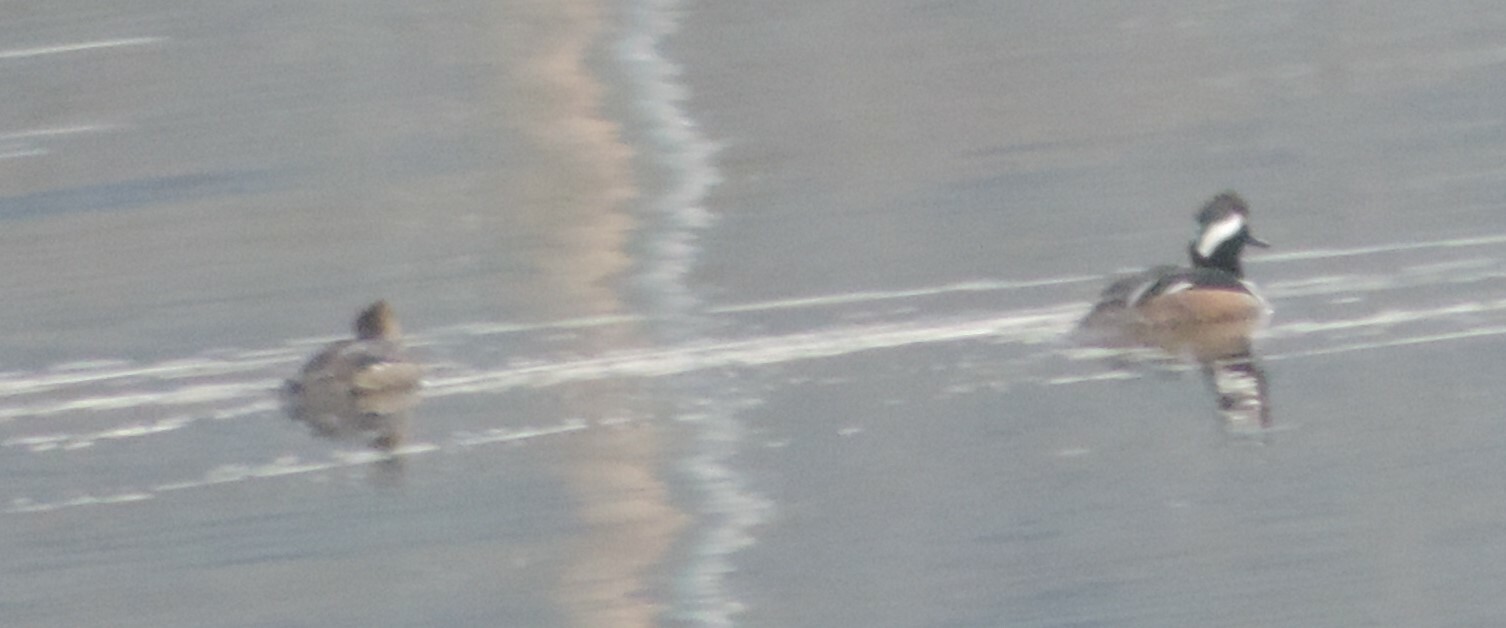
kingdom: Animalia
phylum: Chordata
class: Aves
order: Anseriformes
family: Anatidae
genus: Lophodytes
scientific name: Lophodytes cucullatus
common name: Hooded merganser
